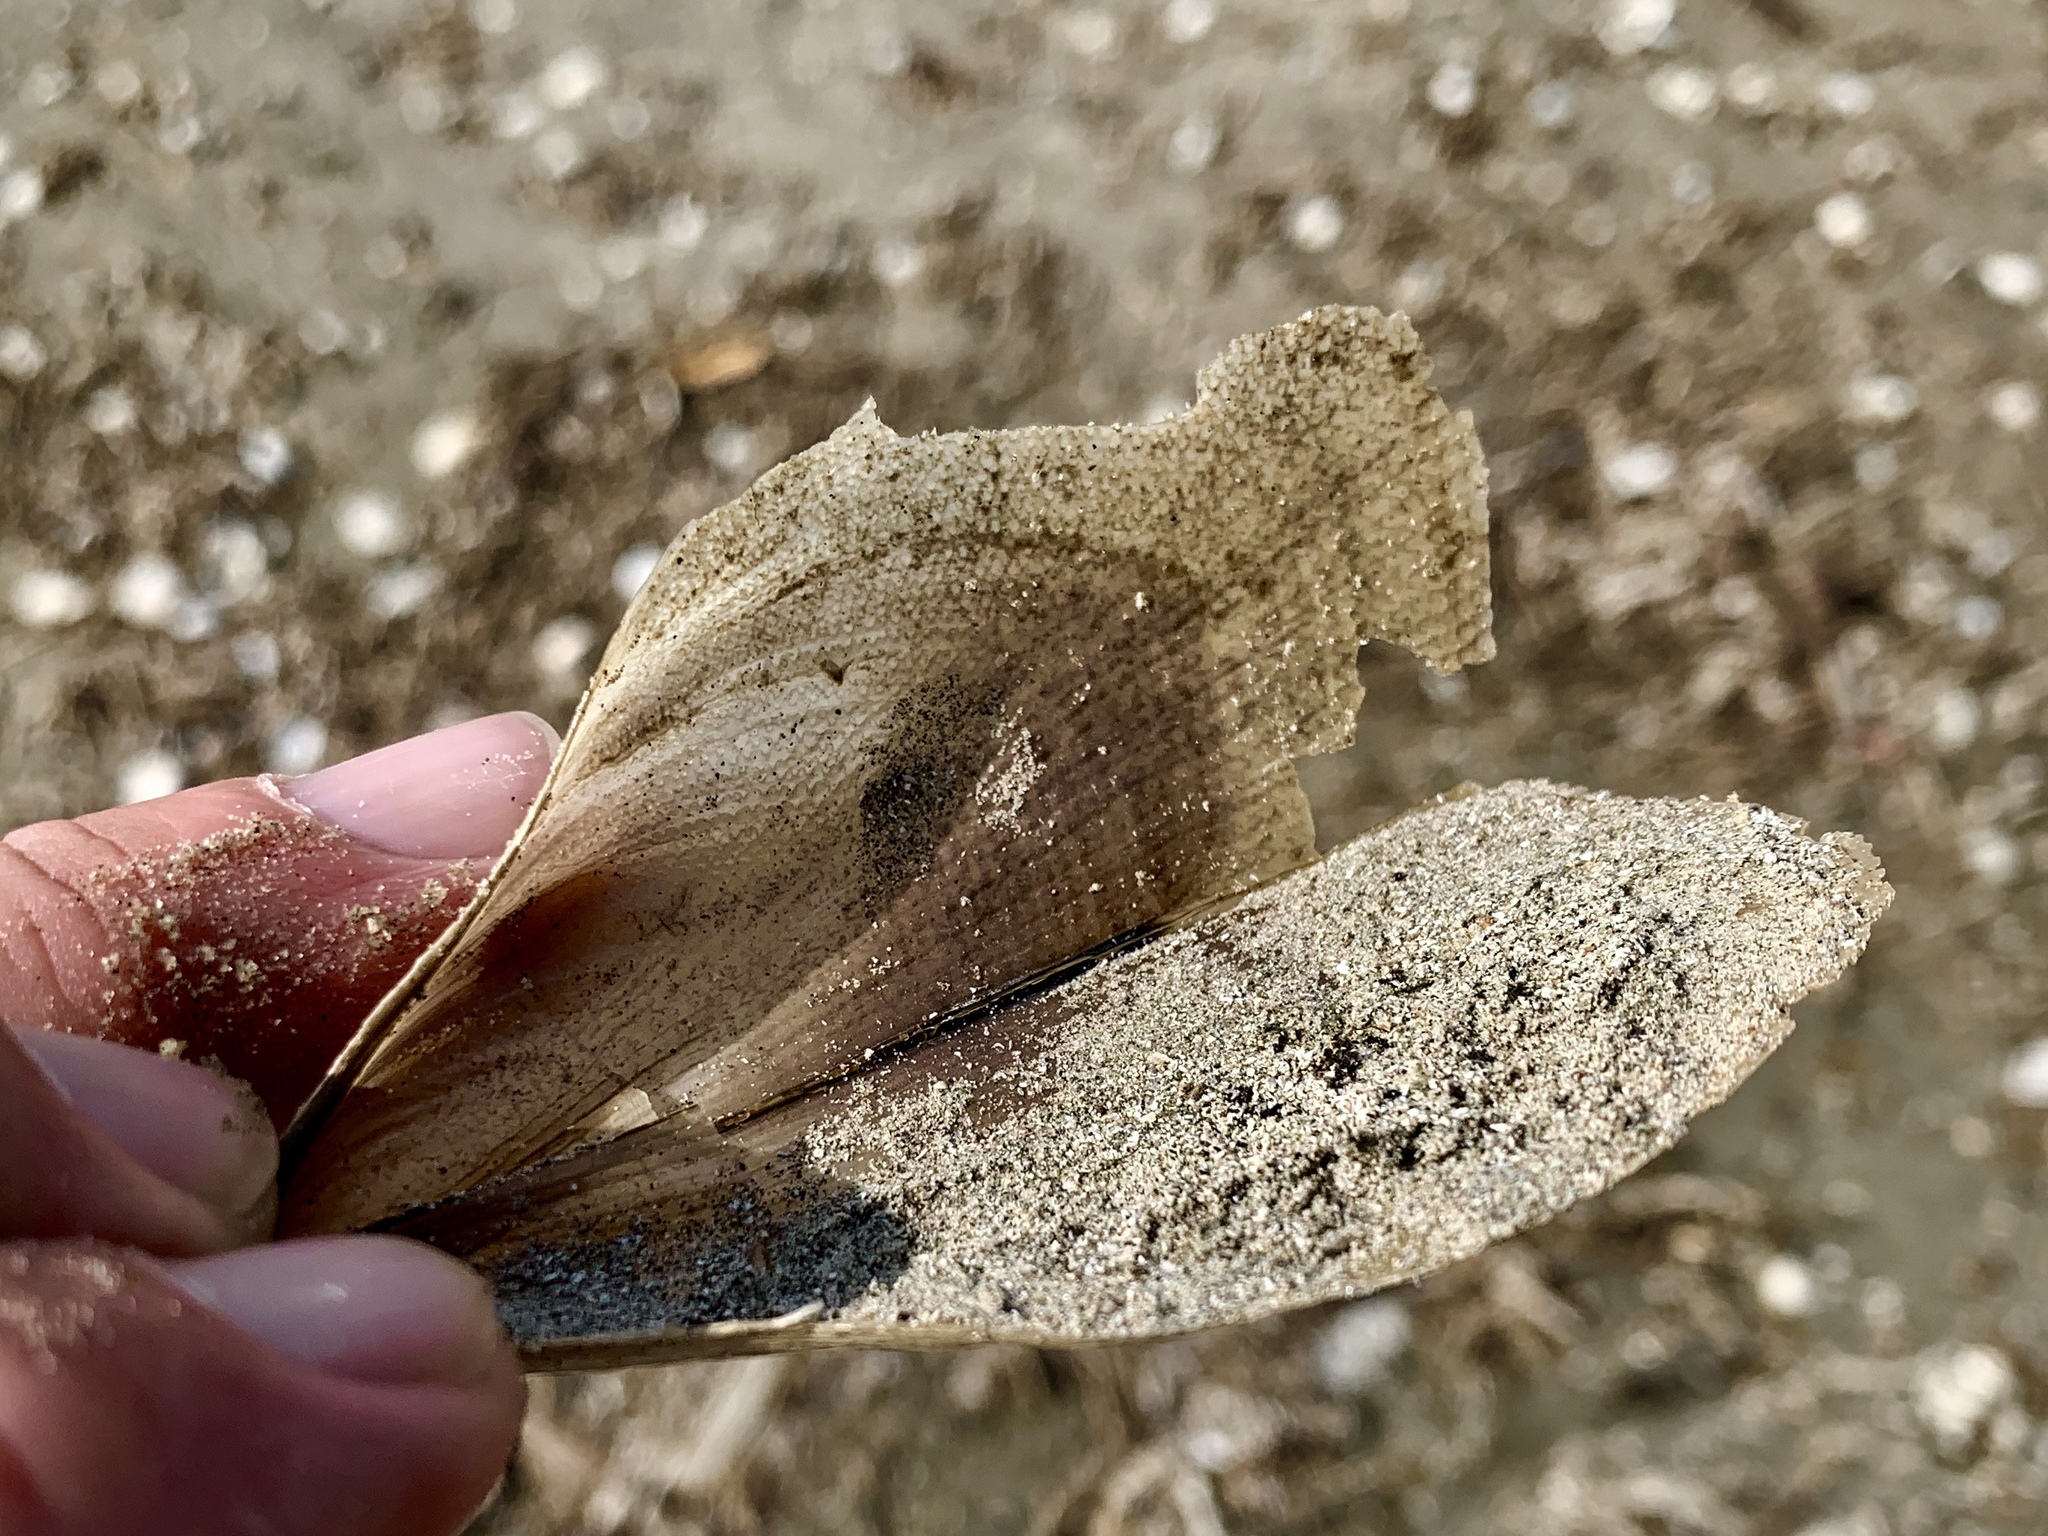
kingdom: Animalia
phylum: Mollusca
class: Bivalvia
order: Ostreida
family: Pinnidae
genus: Atrina
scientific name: Atrina serrata
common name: Saw-toothed penshell
